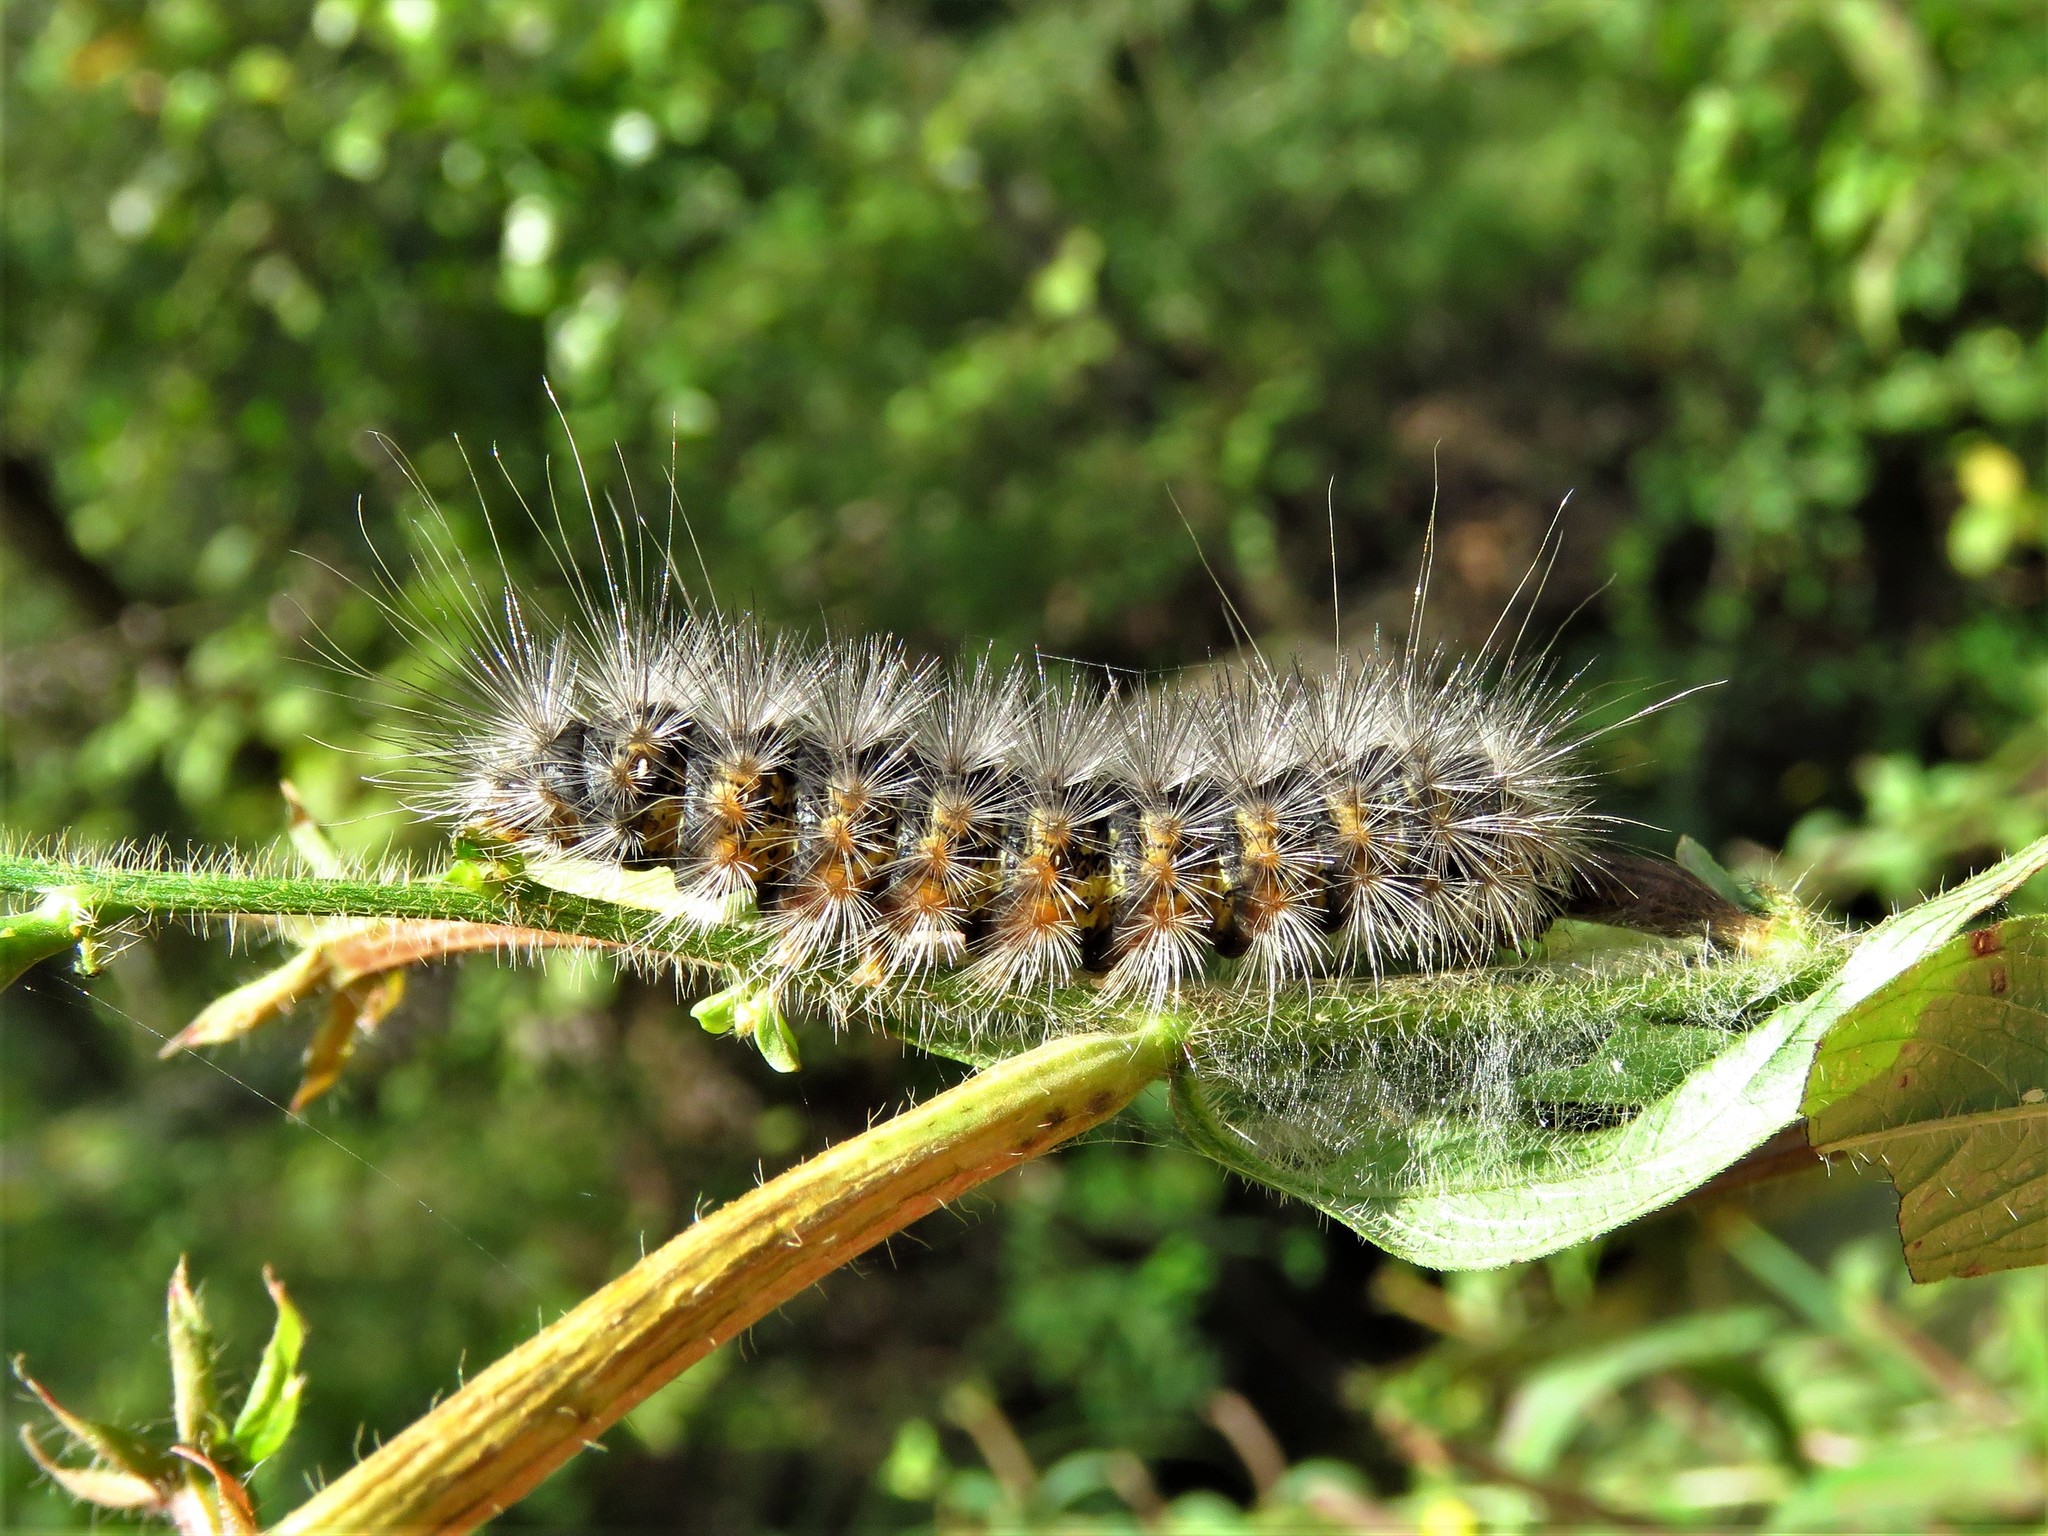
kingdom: Animalia
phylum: Arthropoda
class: Insecta
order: Lepidoptera
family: Erebidae
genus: Estigmene
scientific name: Estigmene acrea
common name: Salt marsh moth
